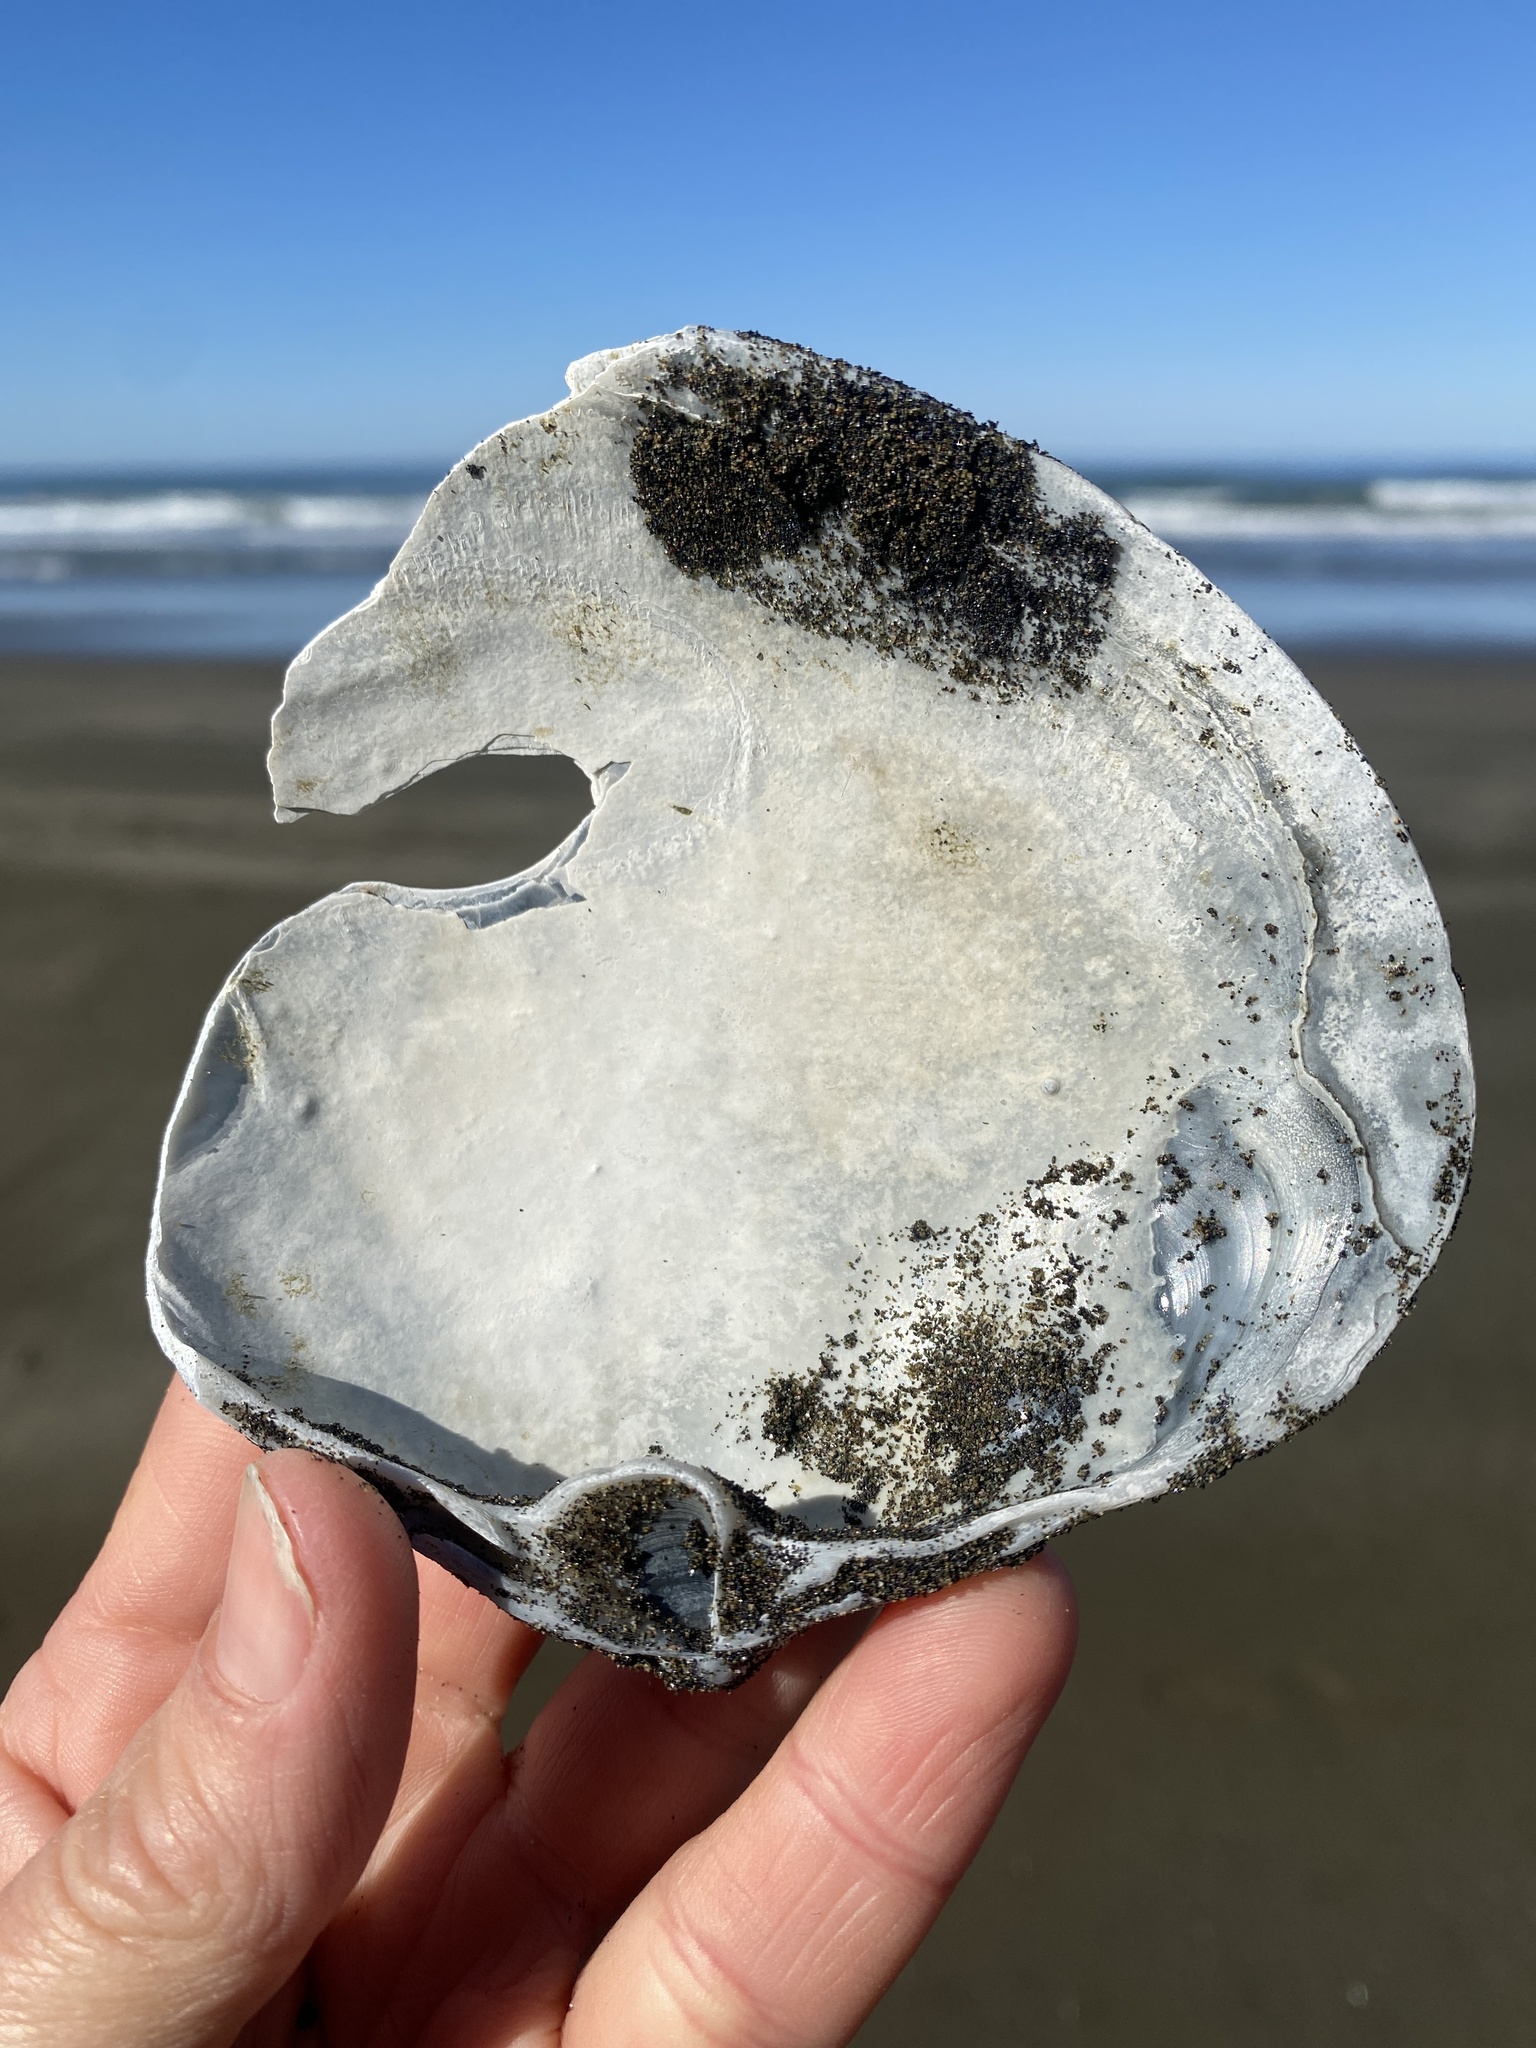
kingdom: Animalia
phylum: Mollusca
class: Bivalvia
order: Venerida
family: Mactridae
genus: Mactromeris
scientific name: Mactromeris catilliformis
